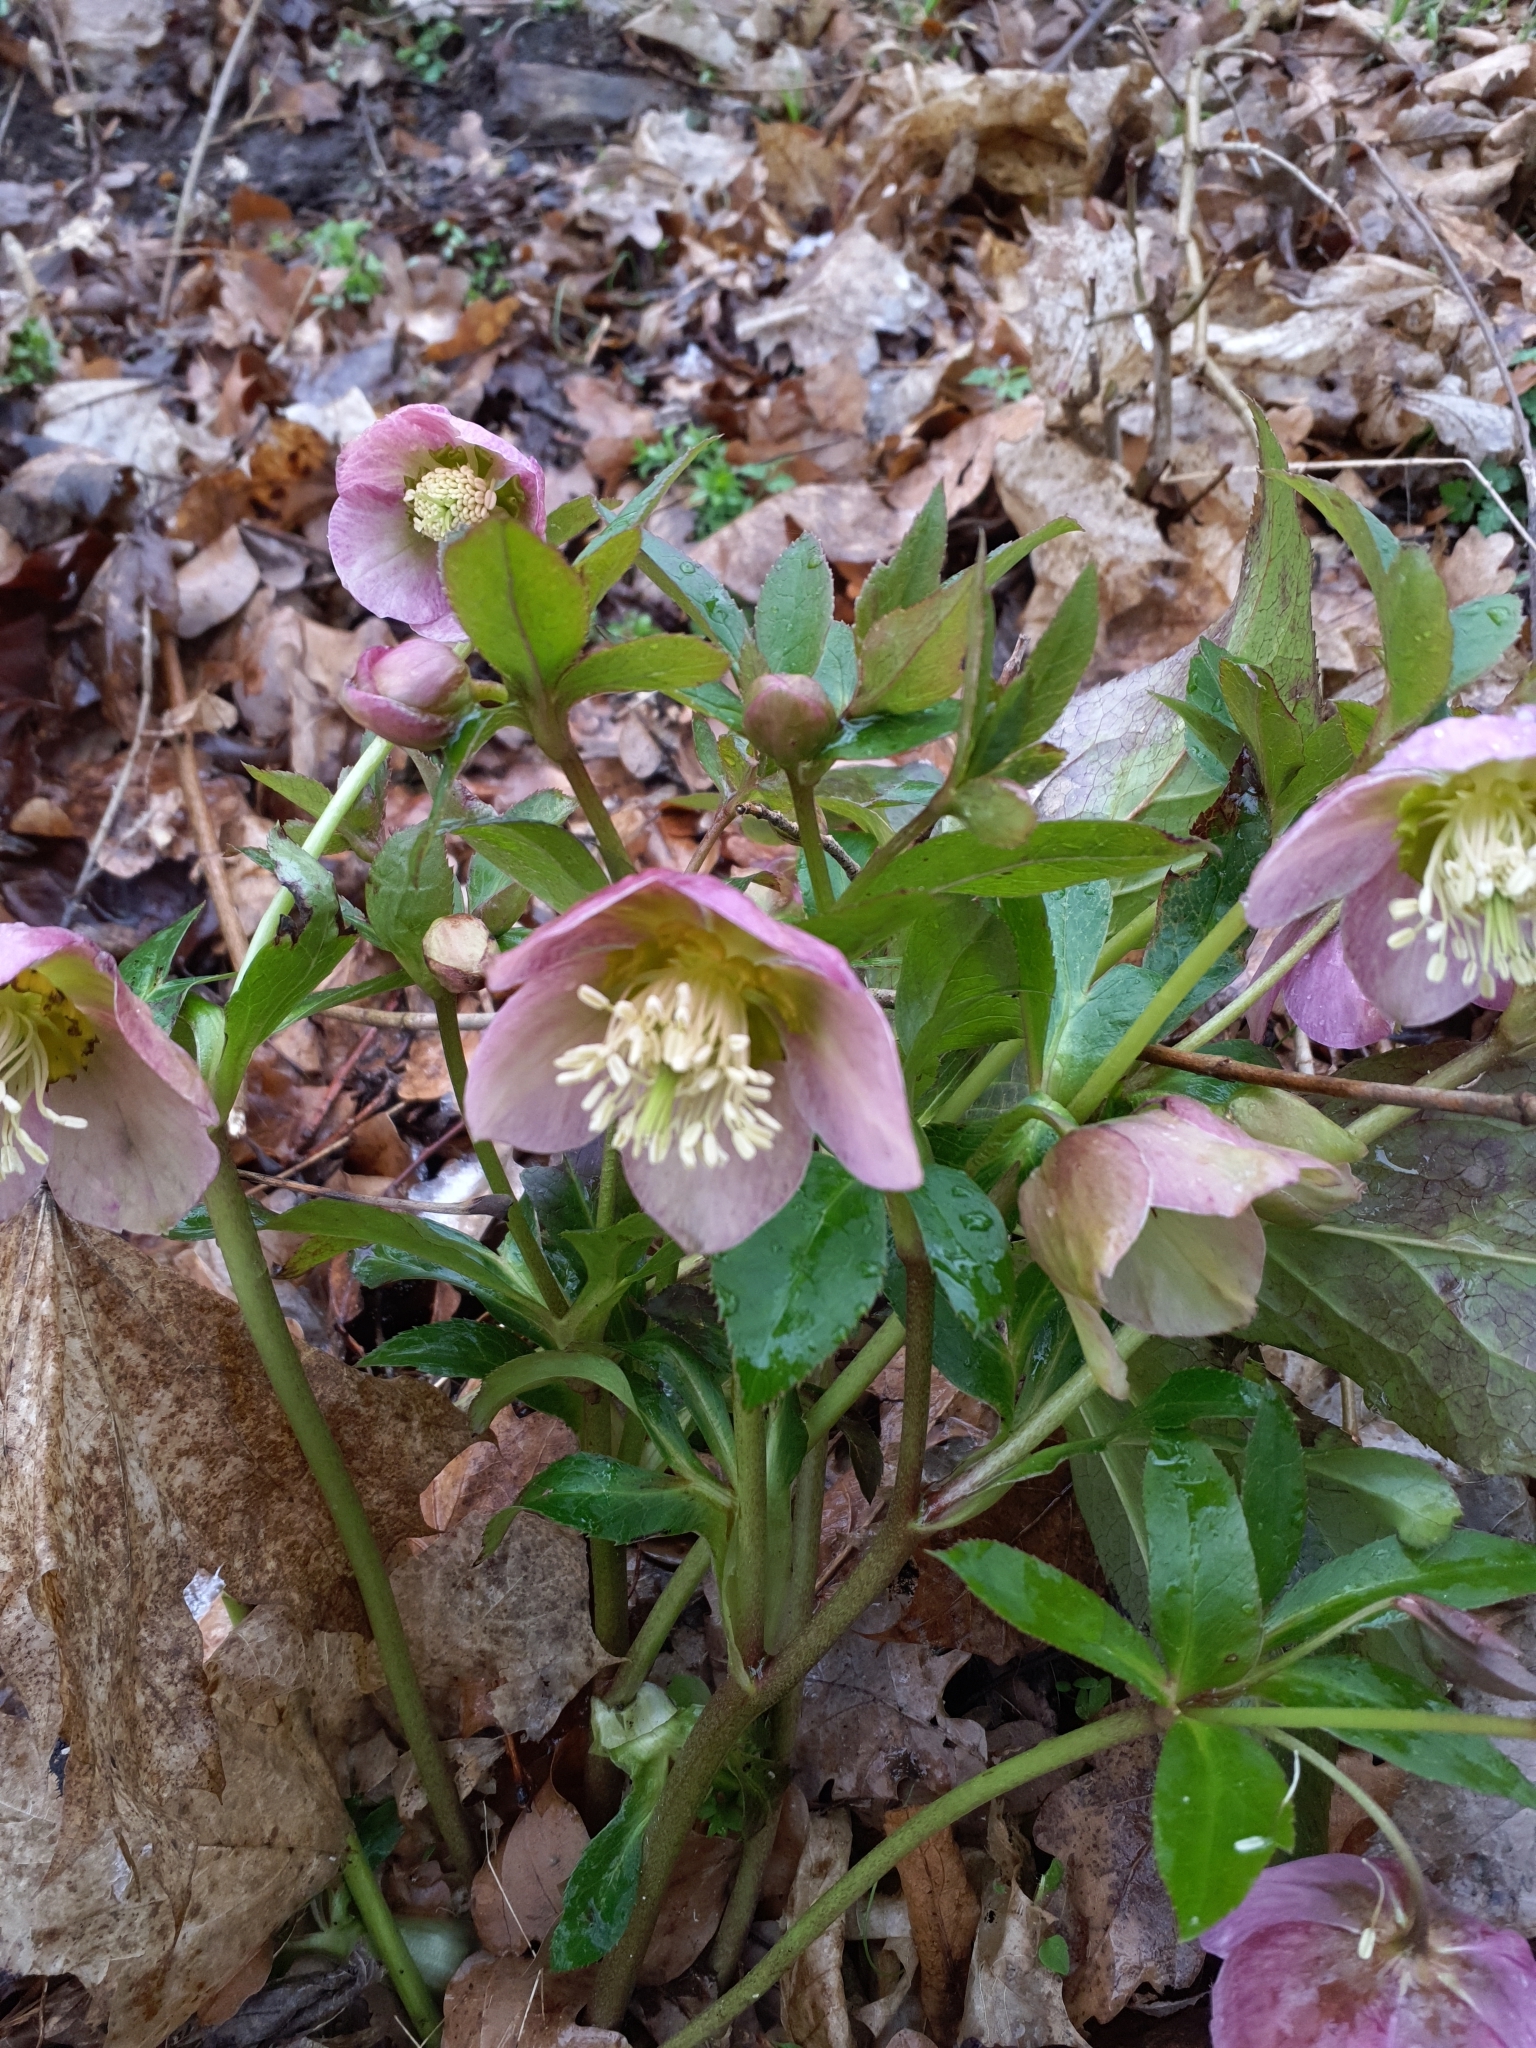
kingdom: Plantae
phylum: Tracheophyta
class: Magnoliopsida
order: Ranunculales
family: Ranunculaceae
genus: Helleborus
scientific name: Helleborus orientalis
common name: Lenten-rose
